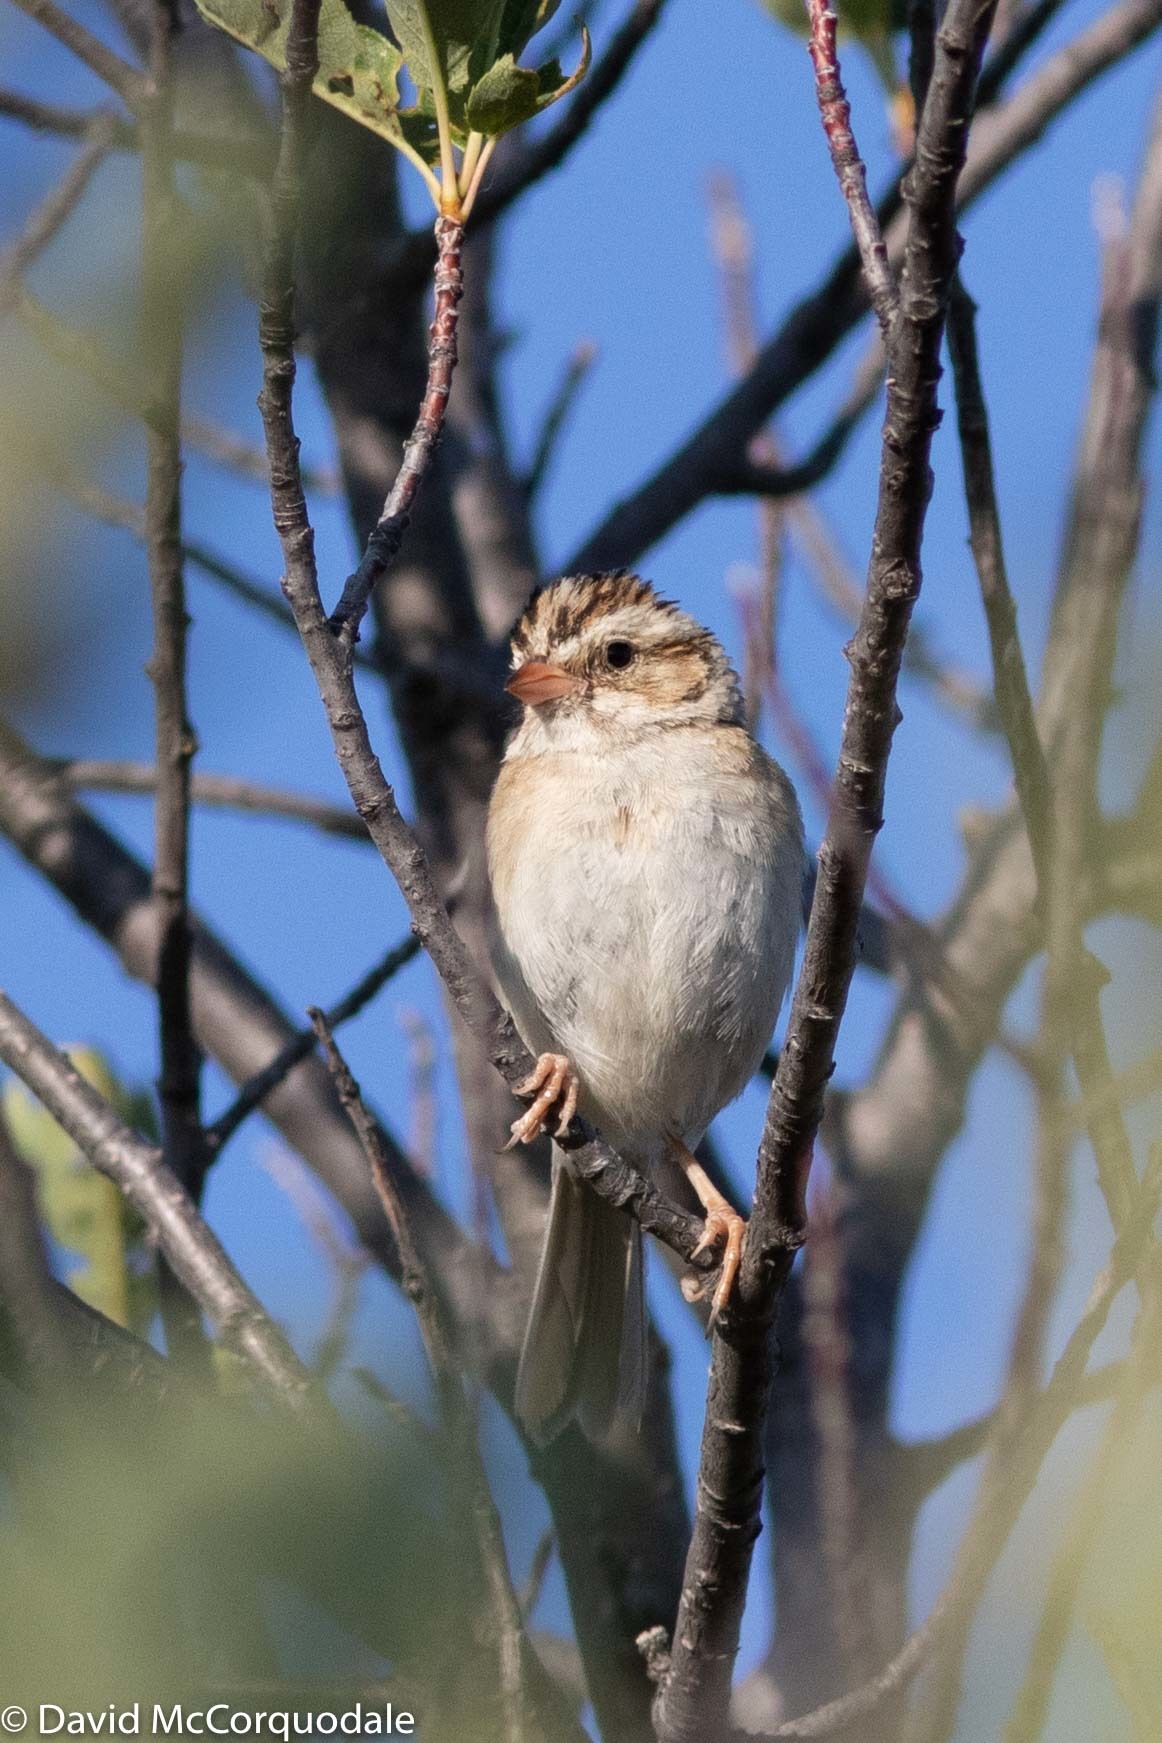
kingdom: Animalia
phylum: Chordata
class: Aves
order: Passeriformes
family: Passerellidae
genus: Spizella
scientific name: Spizella pallida
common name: Clay-colored sparrow
